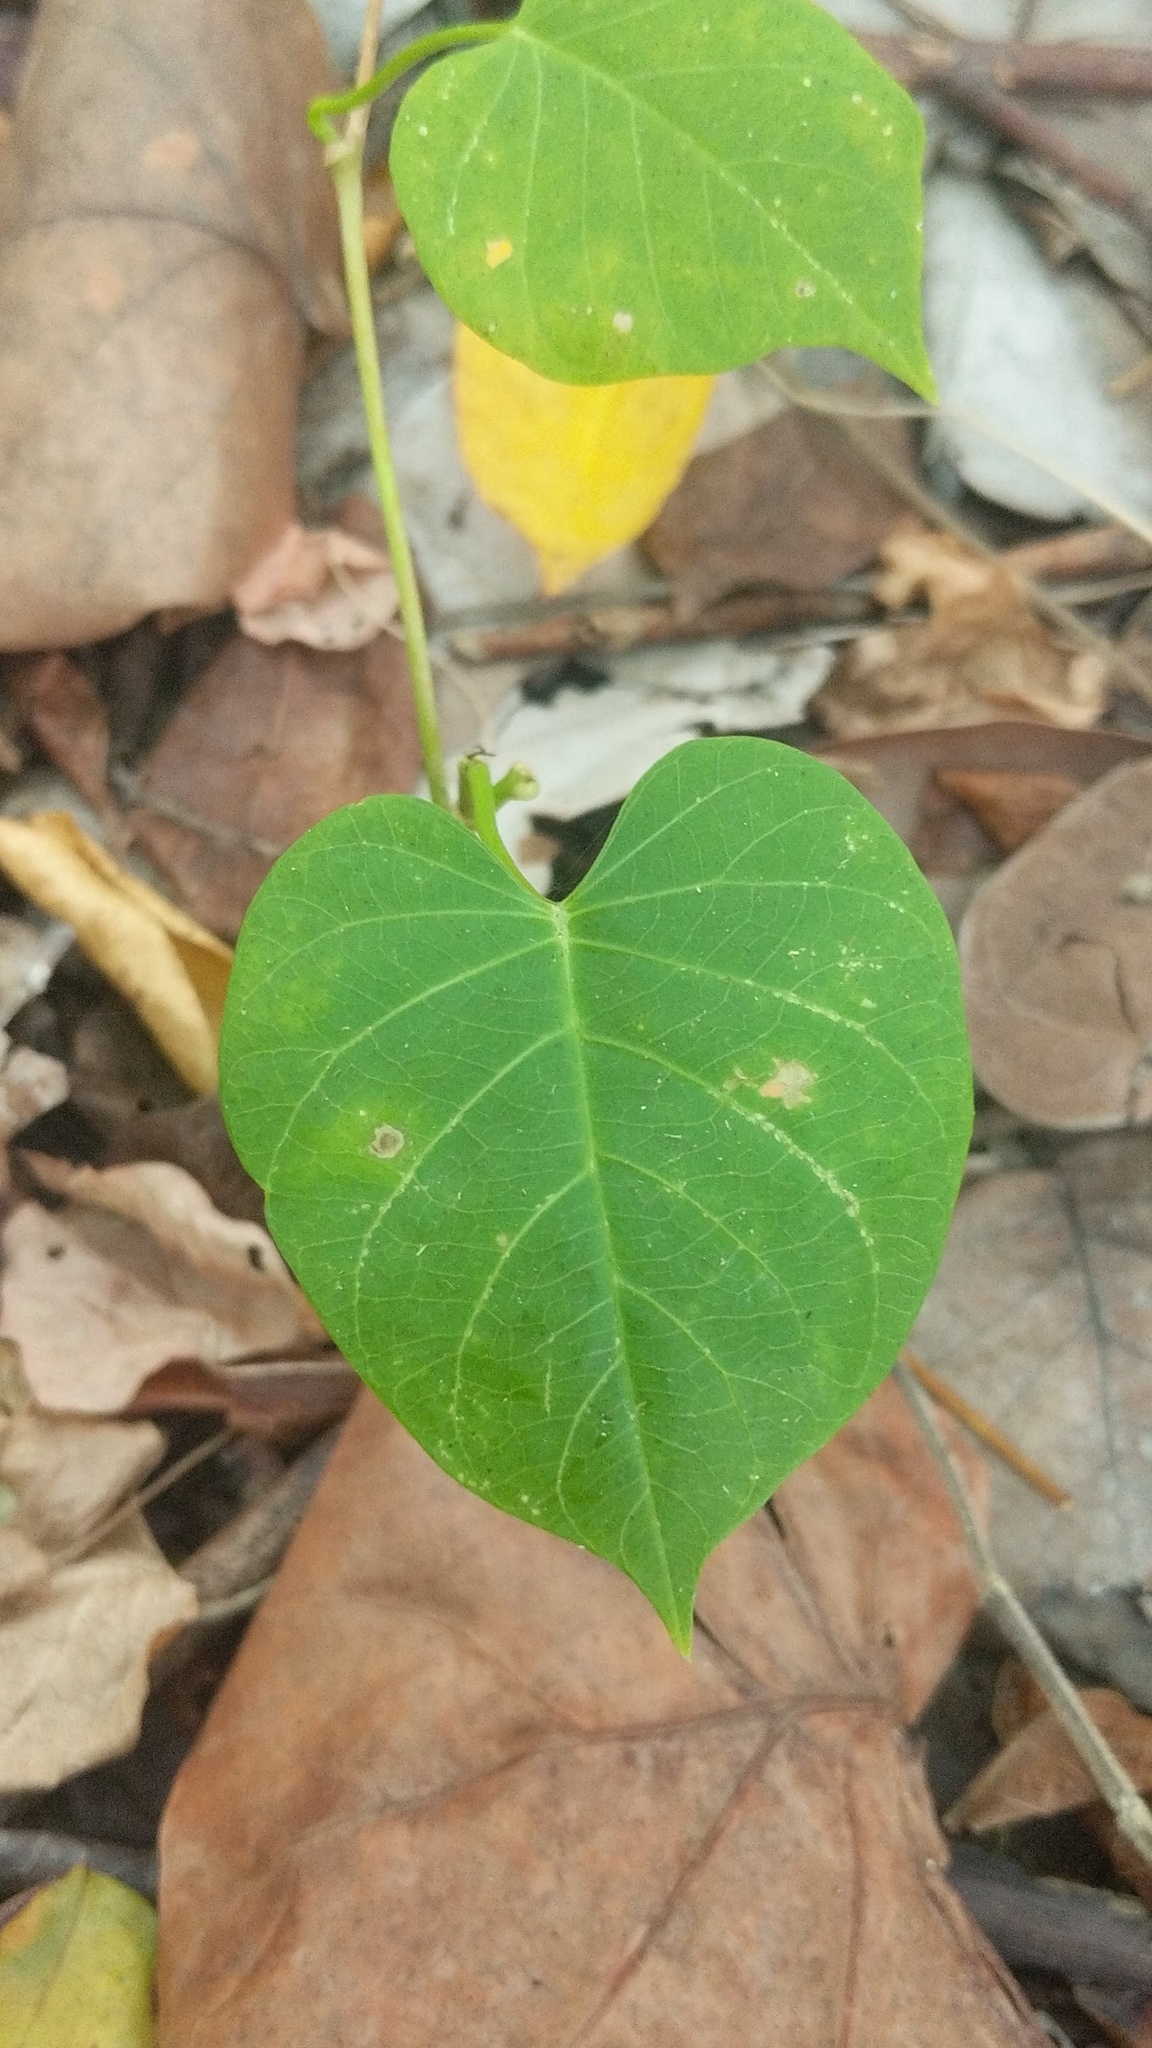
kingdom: Plantae
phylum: Tracheophyta
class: Magnoliopsida
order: Solanales
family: Convolvulaceae
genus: Ipomoea
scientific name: Ipomoea violacea
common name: Beach moonflower
